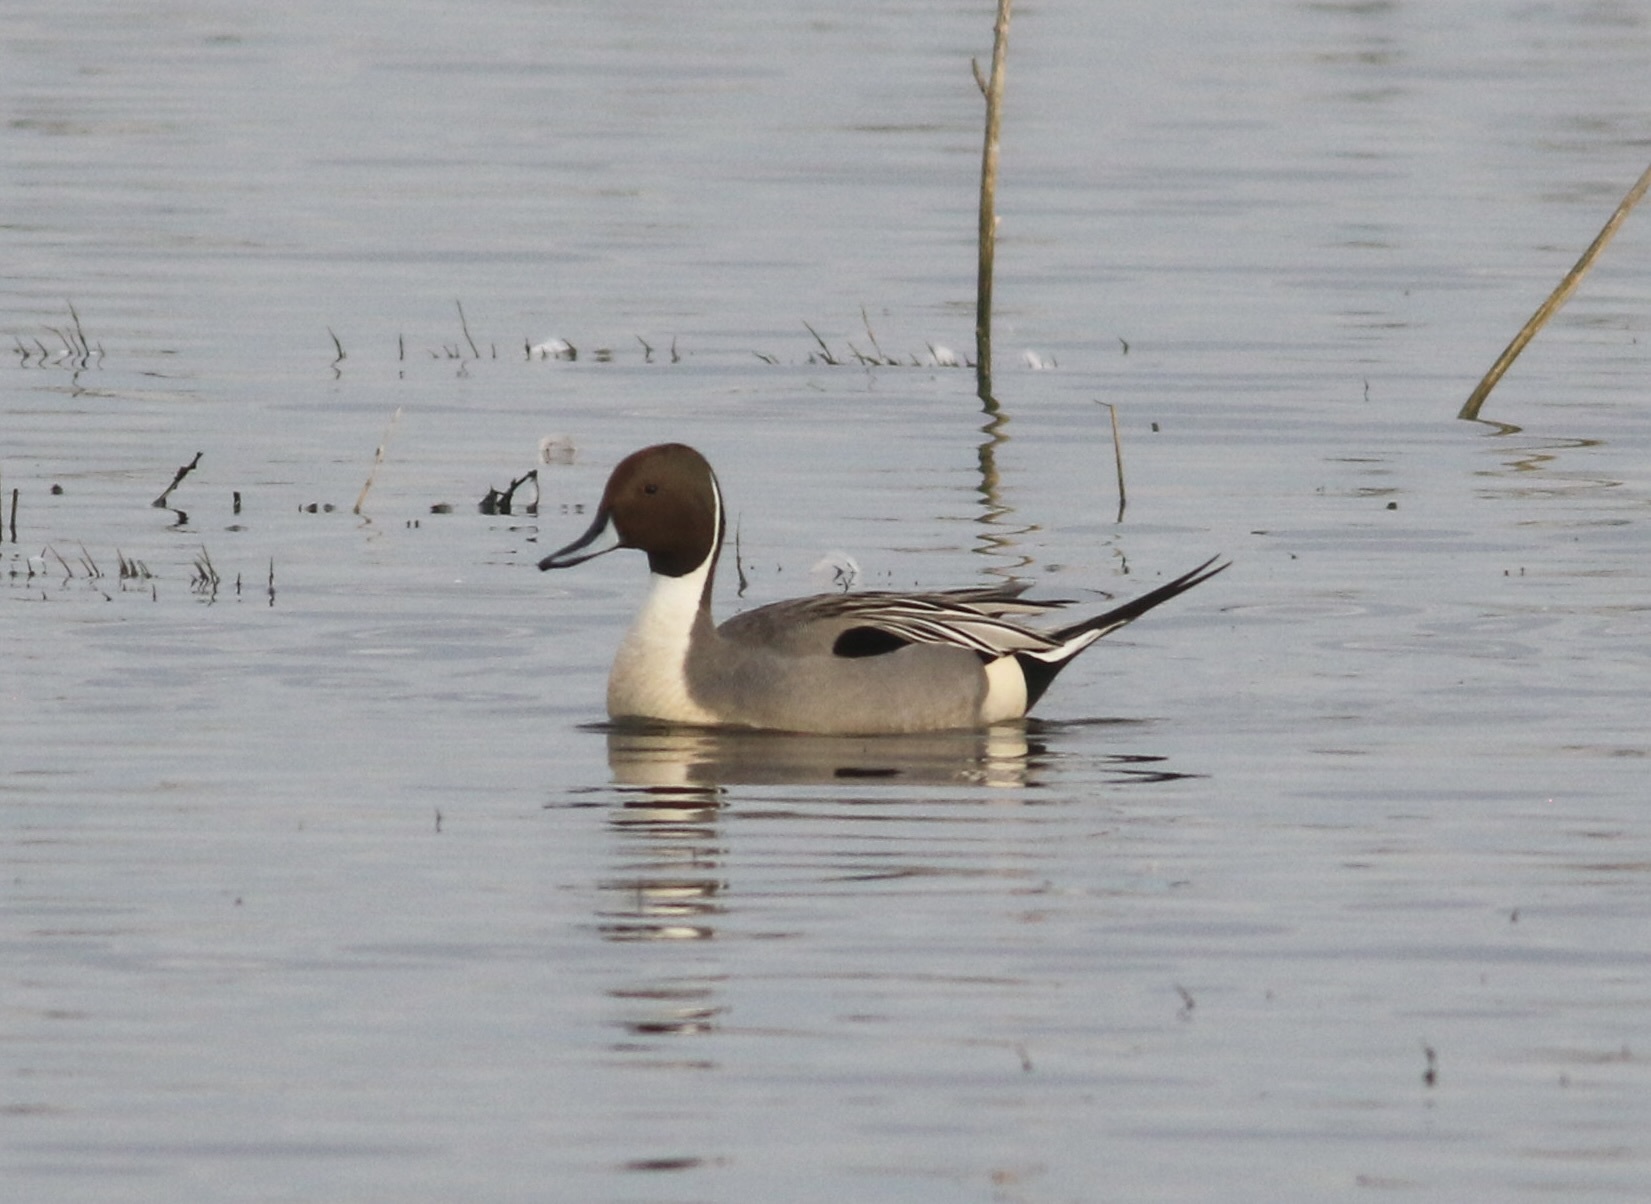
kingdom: Animalia
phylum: Chordata
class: Aves
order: Anseriformes
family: Anatidae
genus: Anas
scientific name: Anas acuta
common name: Northern pintail
